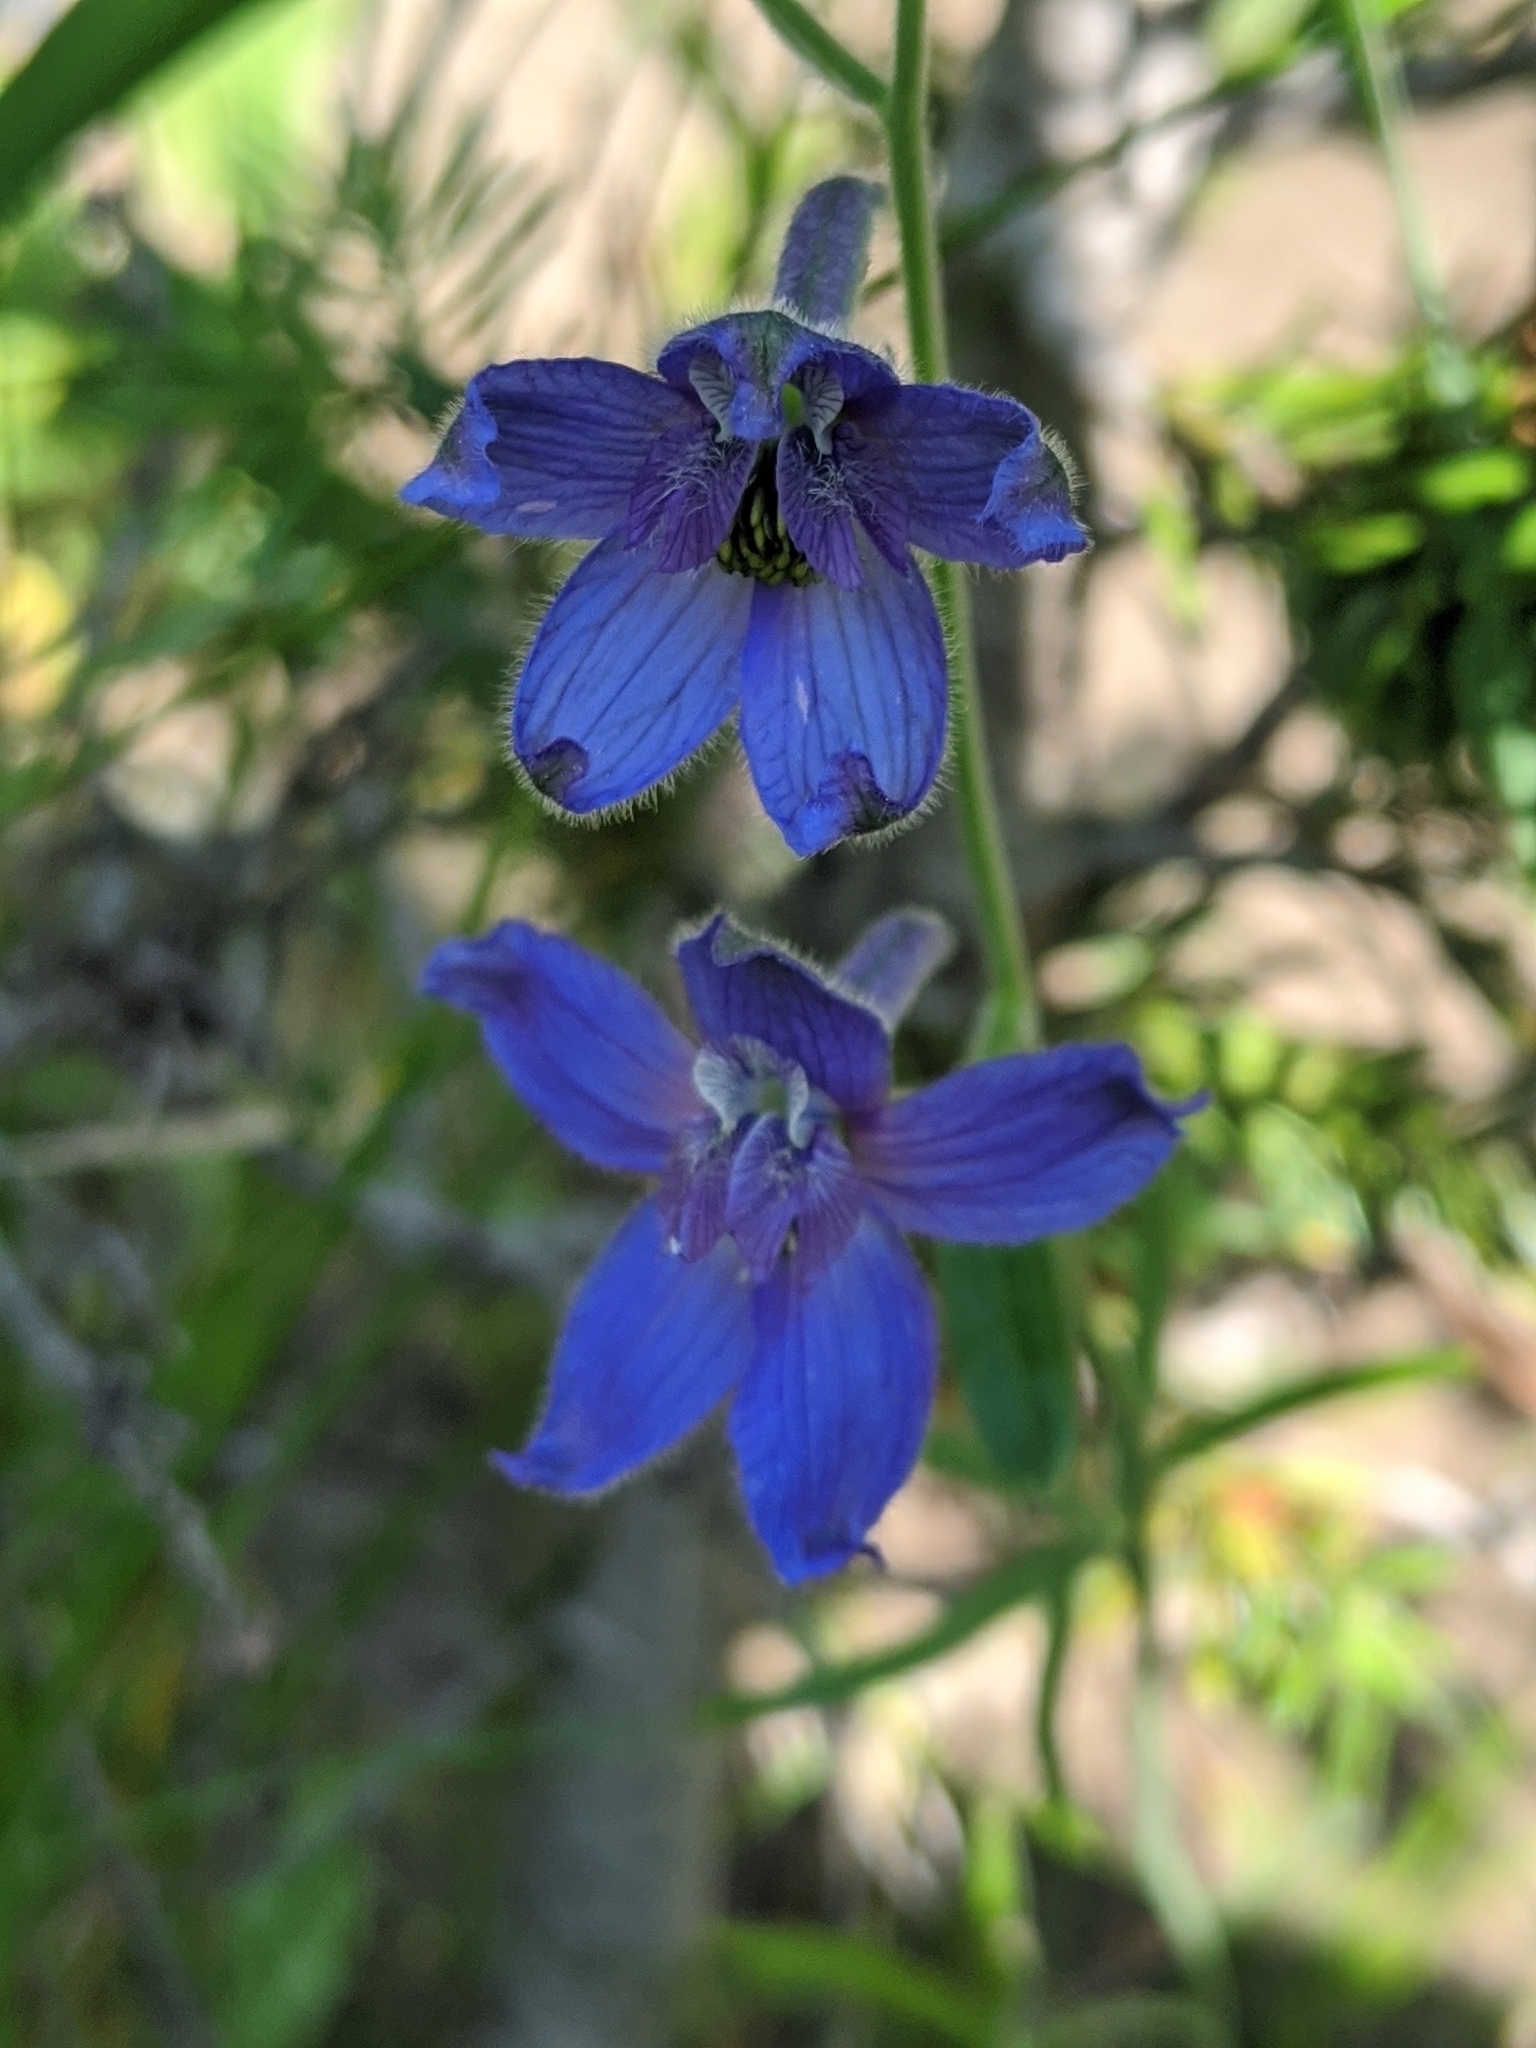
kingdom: Plantae
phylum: Tracheophyta
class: Magnoliopsida
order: Ranunculales
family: Ranunculaceae
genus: Delphinium
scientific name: Delphinium nuttallianum
